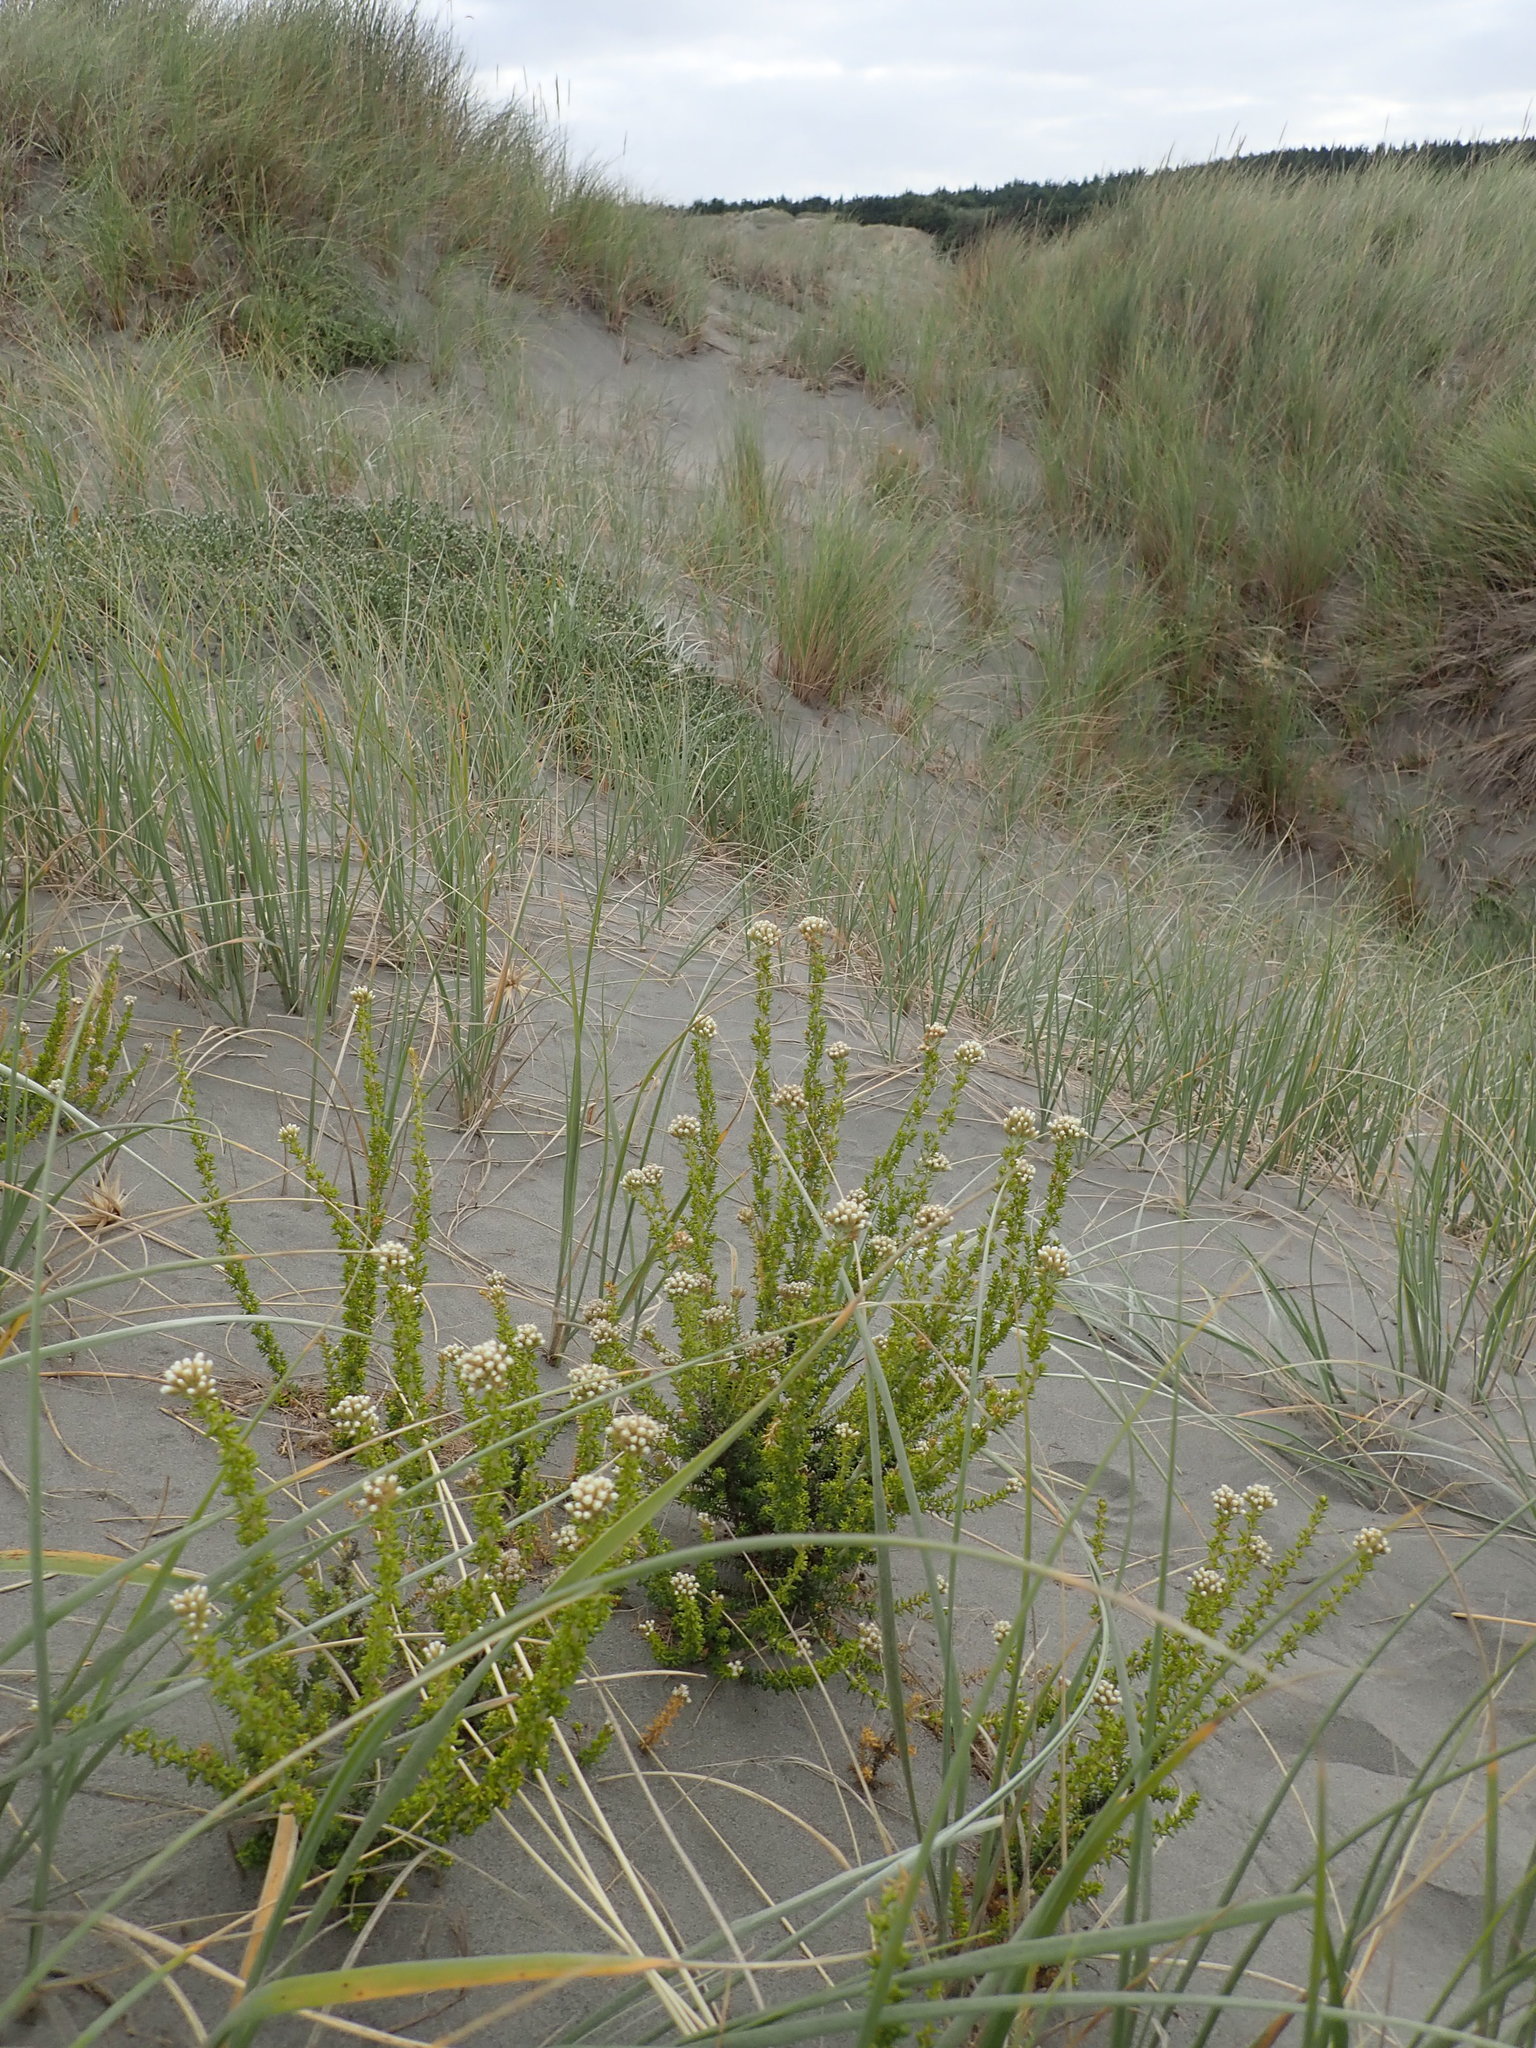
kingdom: Plantae
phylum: Tracheophyta
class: Magnoliopsida
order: Asterales
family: Asteraceae
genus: Ozothamnus
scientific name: Ozothamnus leptophyllus
